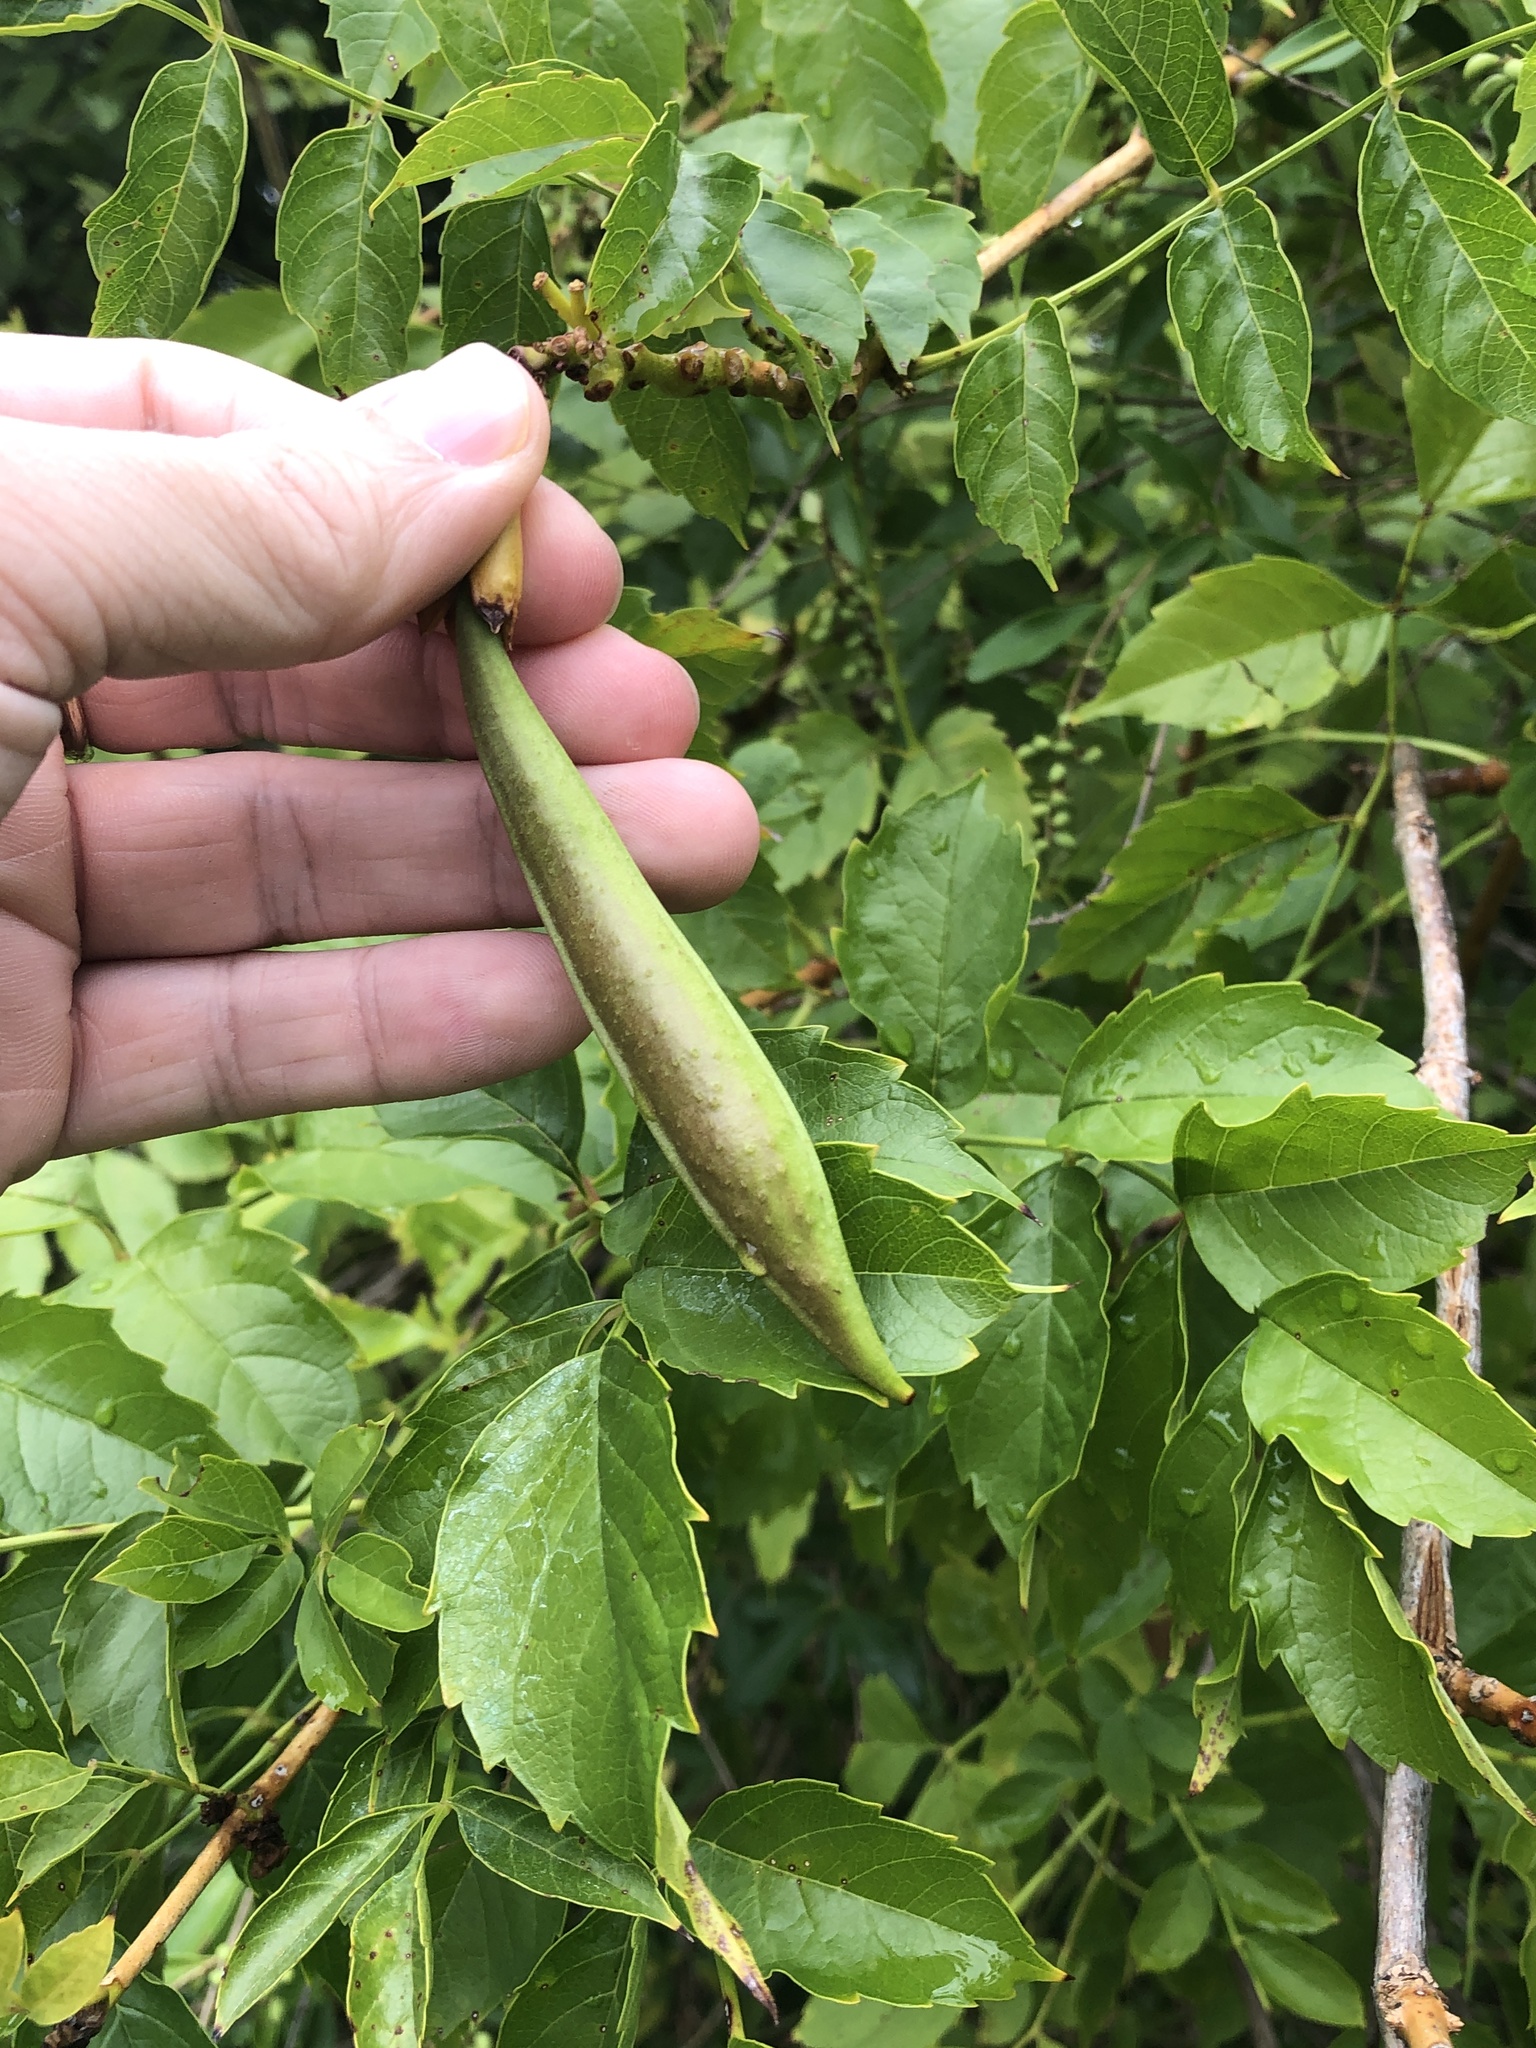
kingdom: Plantae
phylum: Tracheophyta
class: Magnoliopsida
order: Lamiales
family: Bignoniaceae
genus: Campsis
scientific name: Campsis radicans
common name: Trumpet-creeper
